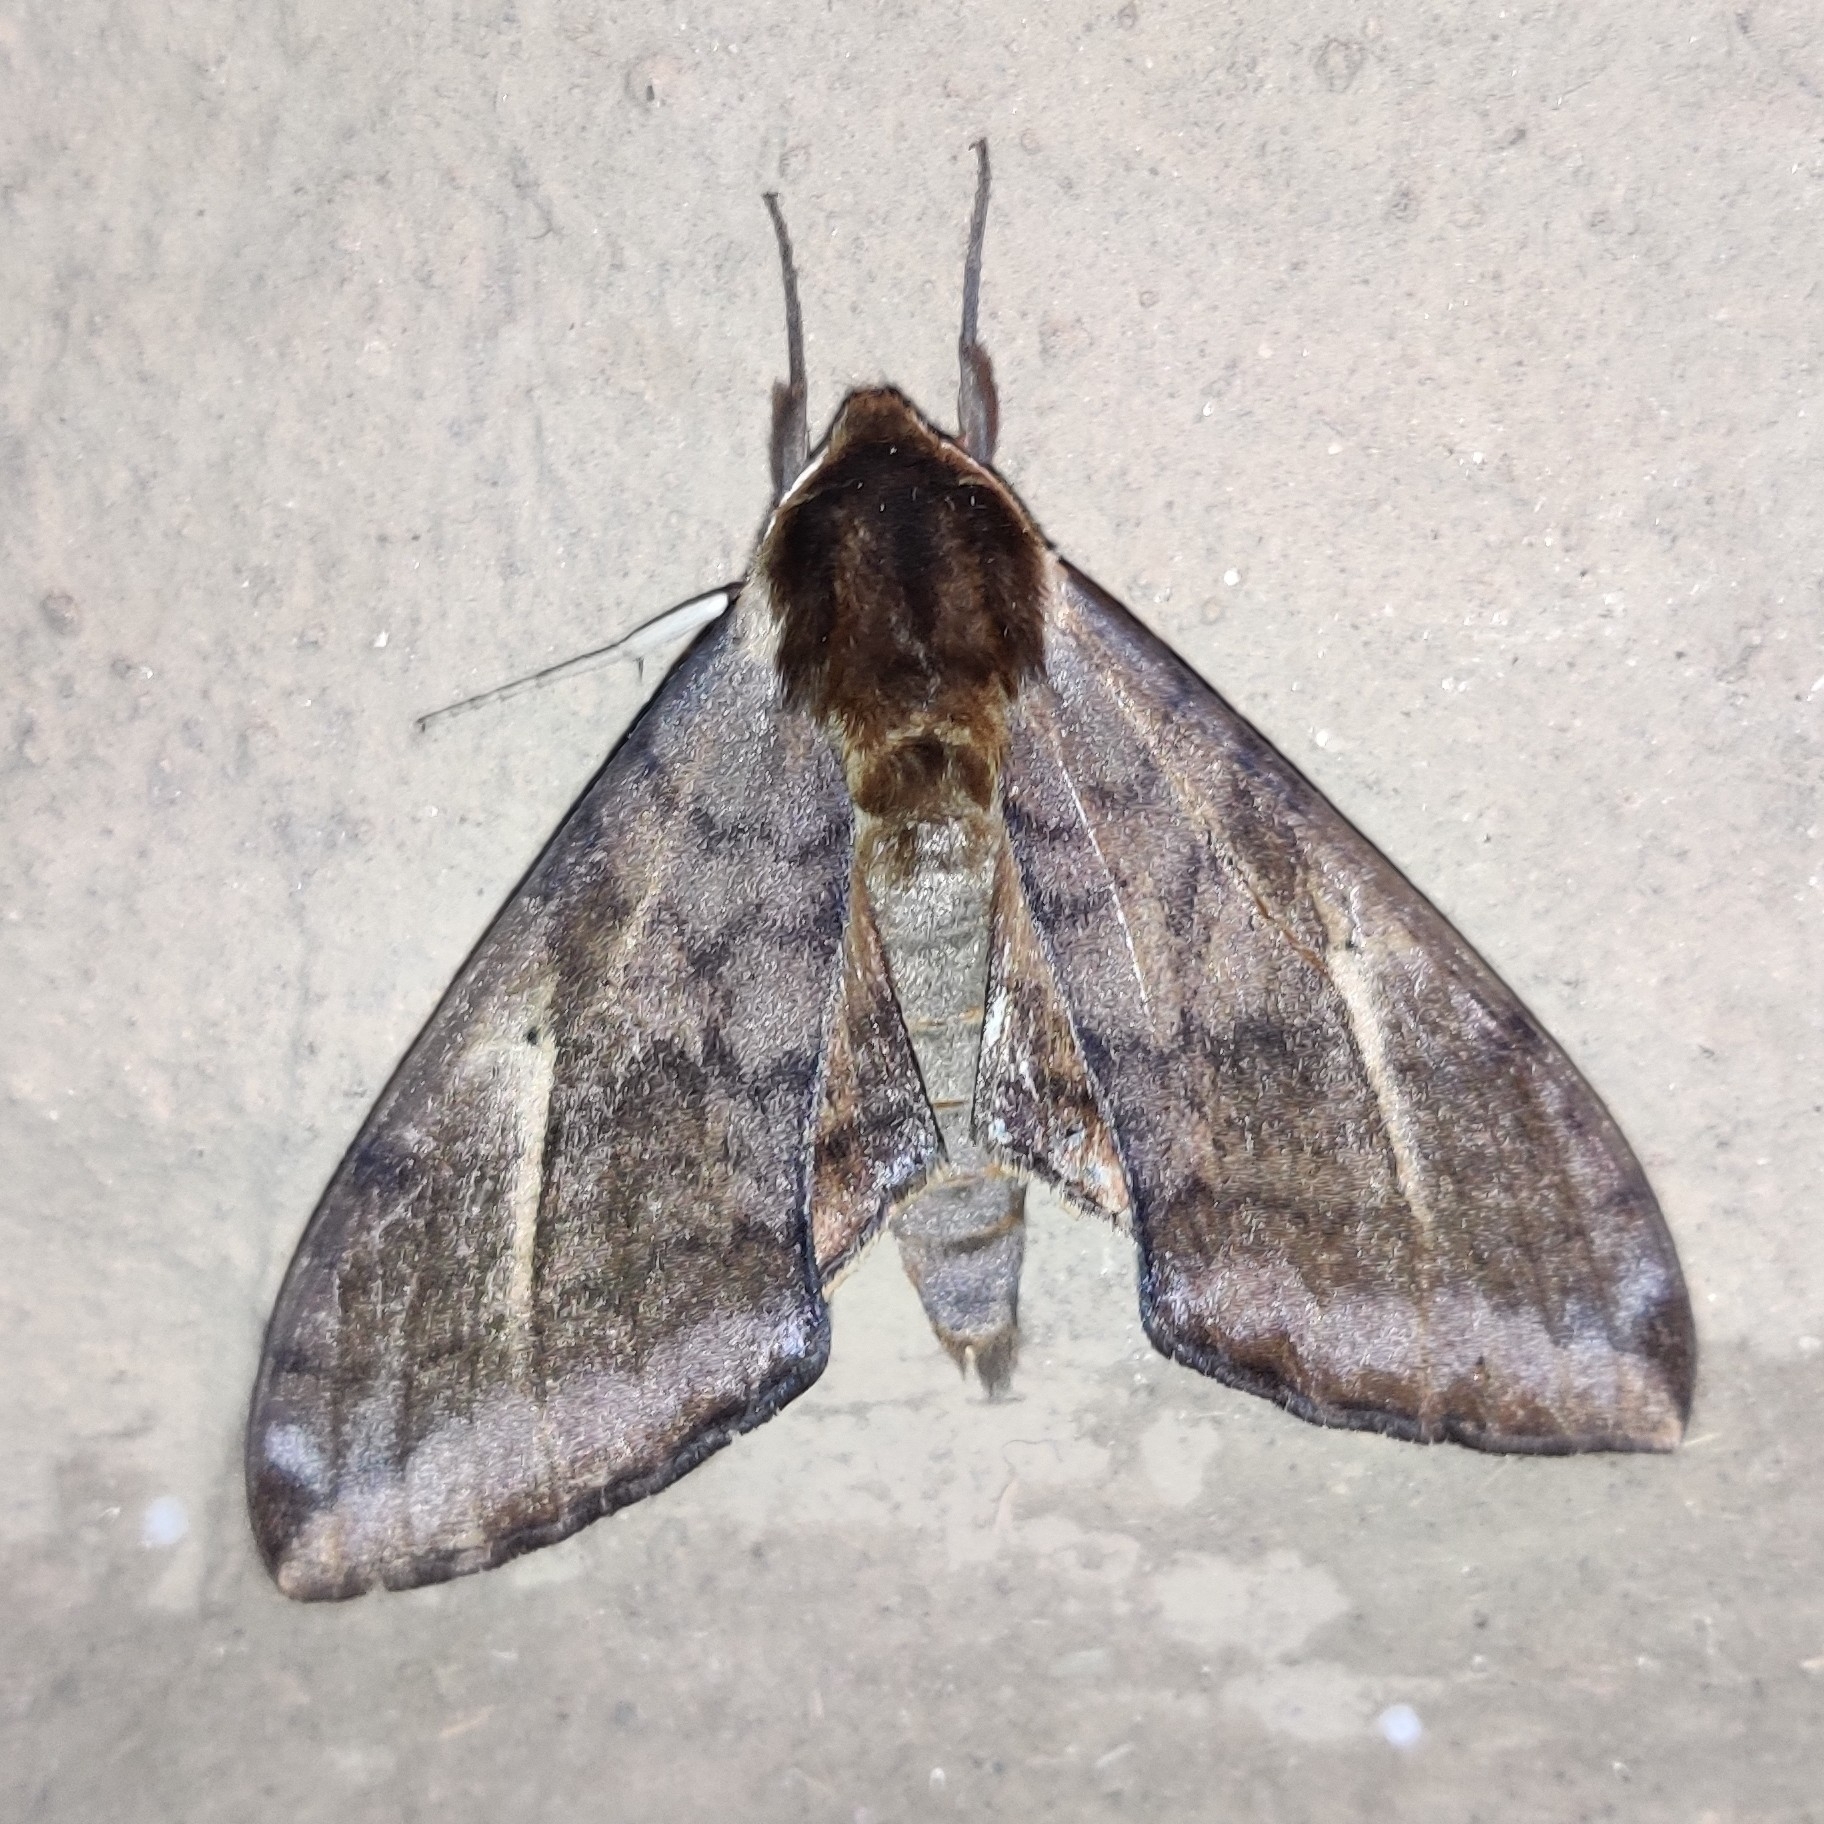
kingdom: Animalia
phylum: Arthropoda
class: Insecta
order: Lepidoptera
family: Sphingidae
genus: Clanidopsis
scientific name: Clanidopsis exusta
